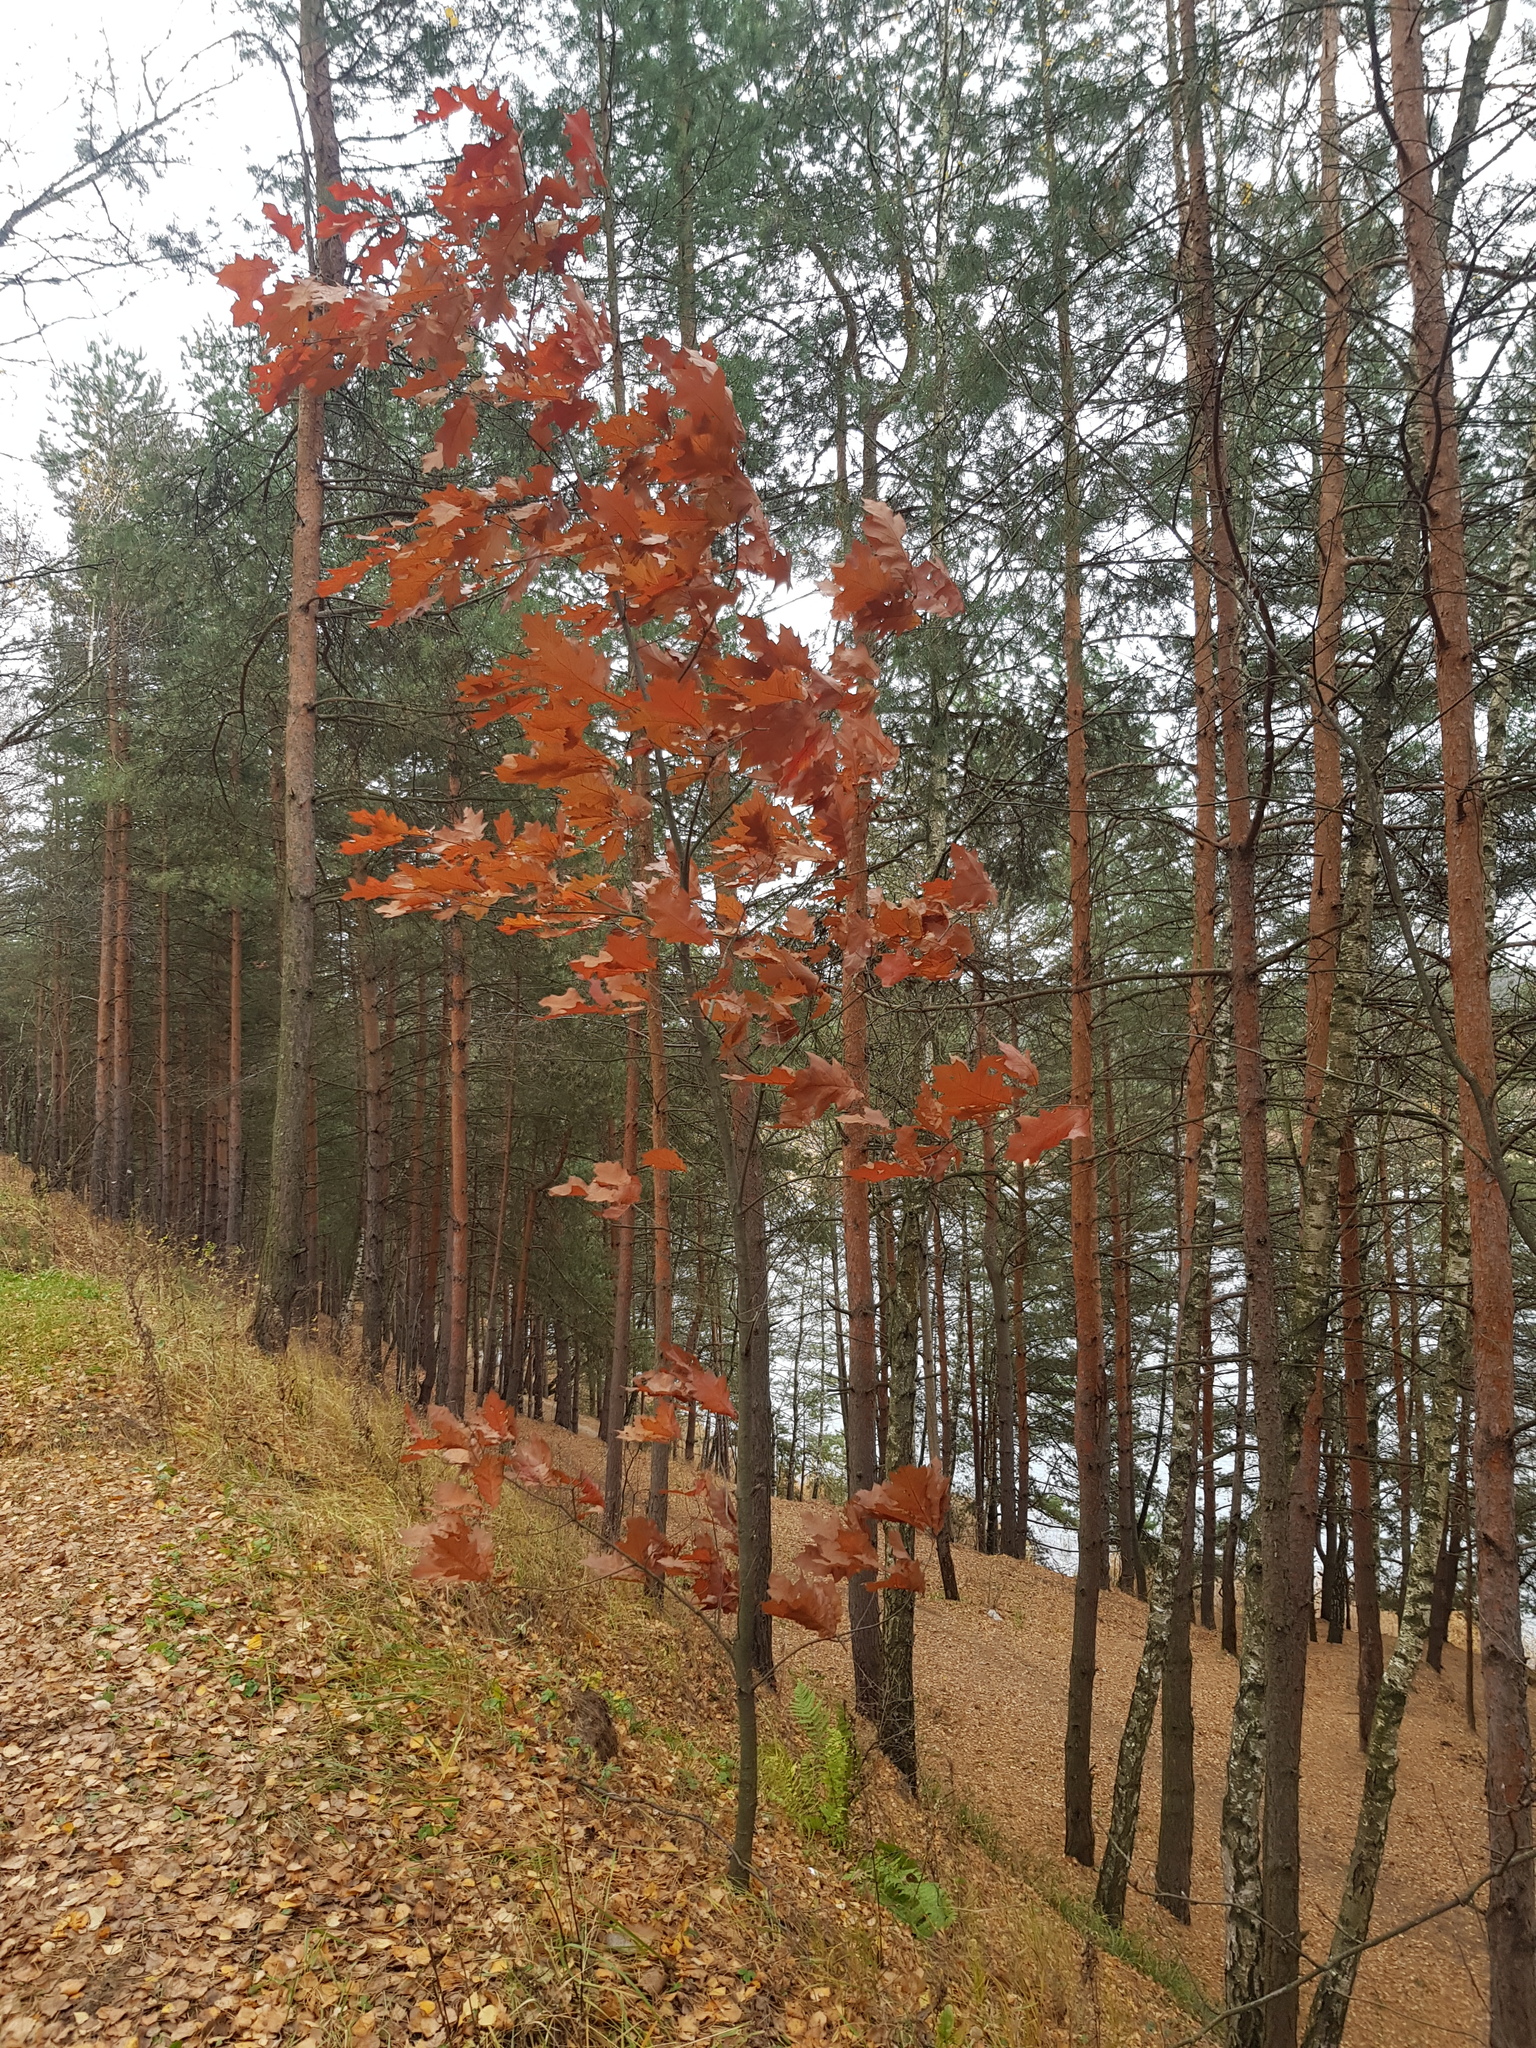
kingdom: Plantae
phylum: Tracheophyta
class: Magnoliopsida
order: Fagales
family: Fagaceae
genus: Quercus
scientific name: Quercus rubra
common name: Red oak
